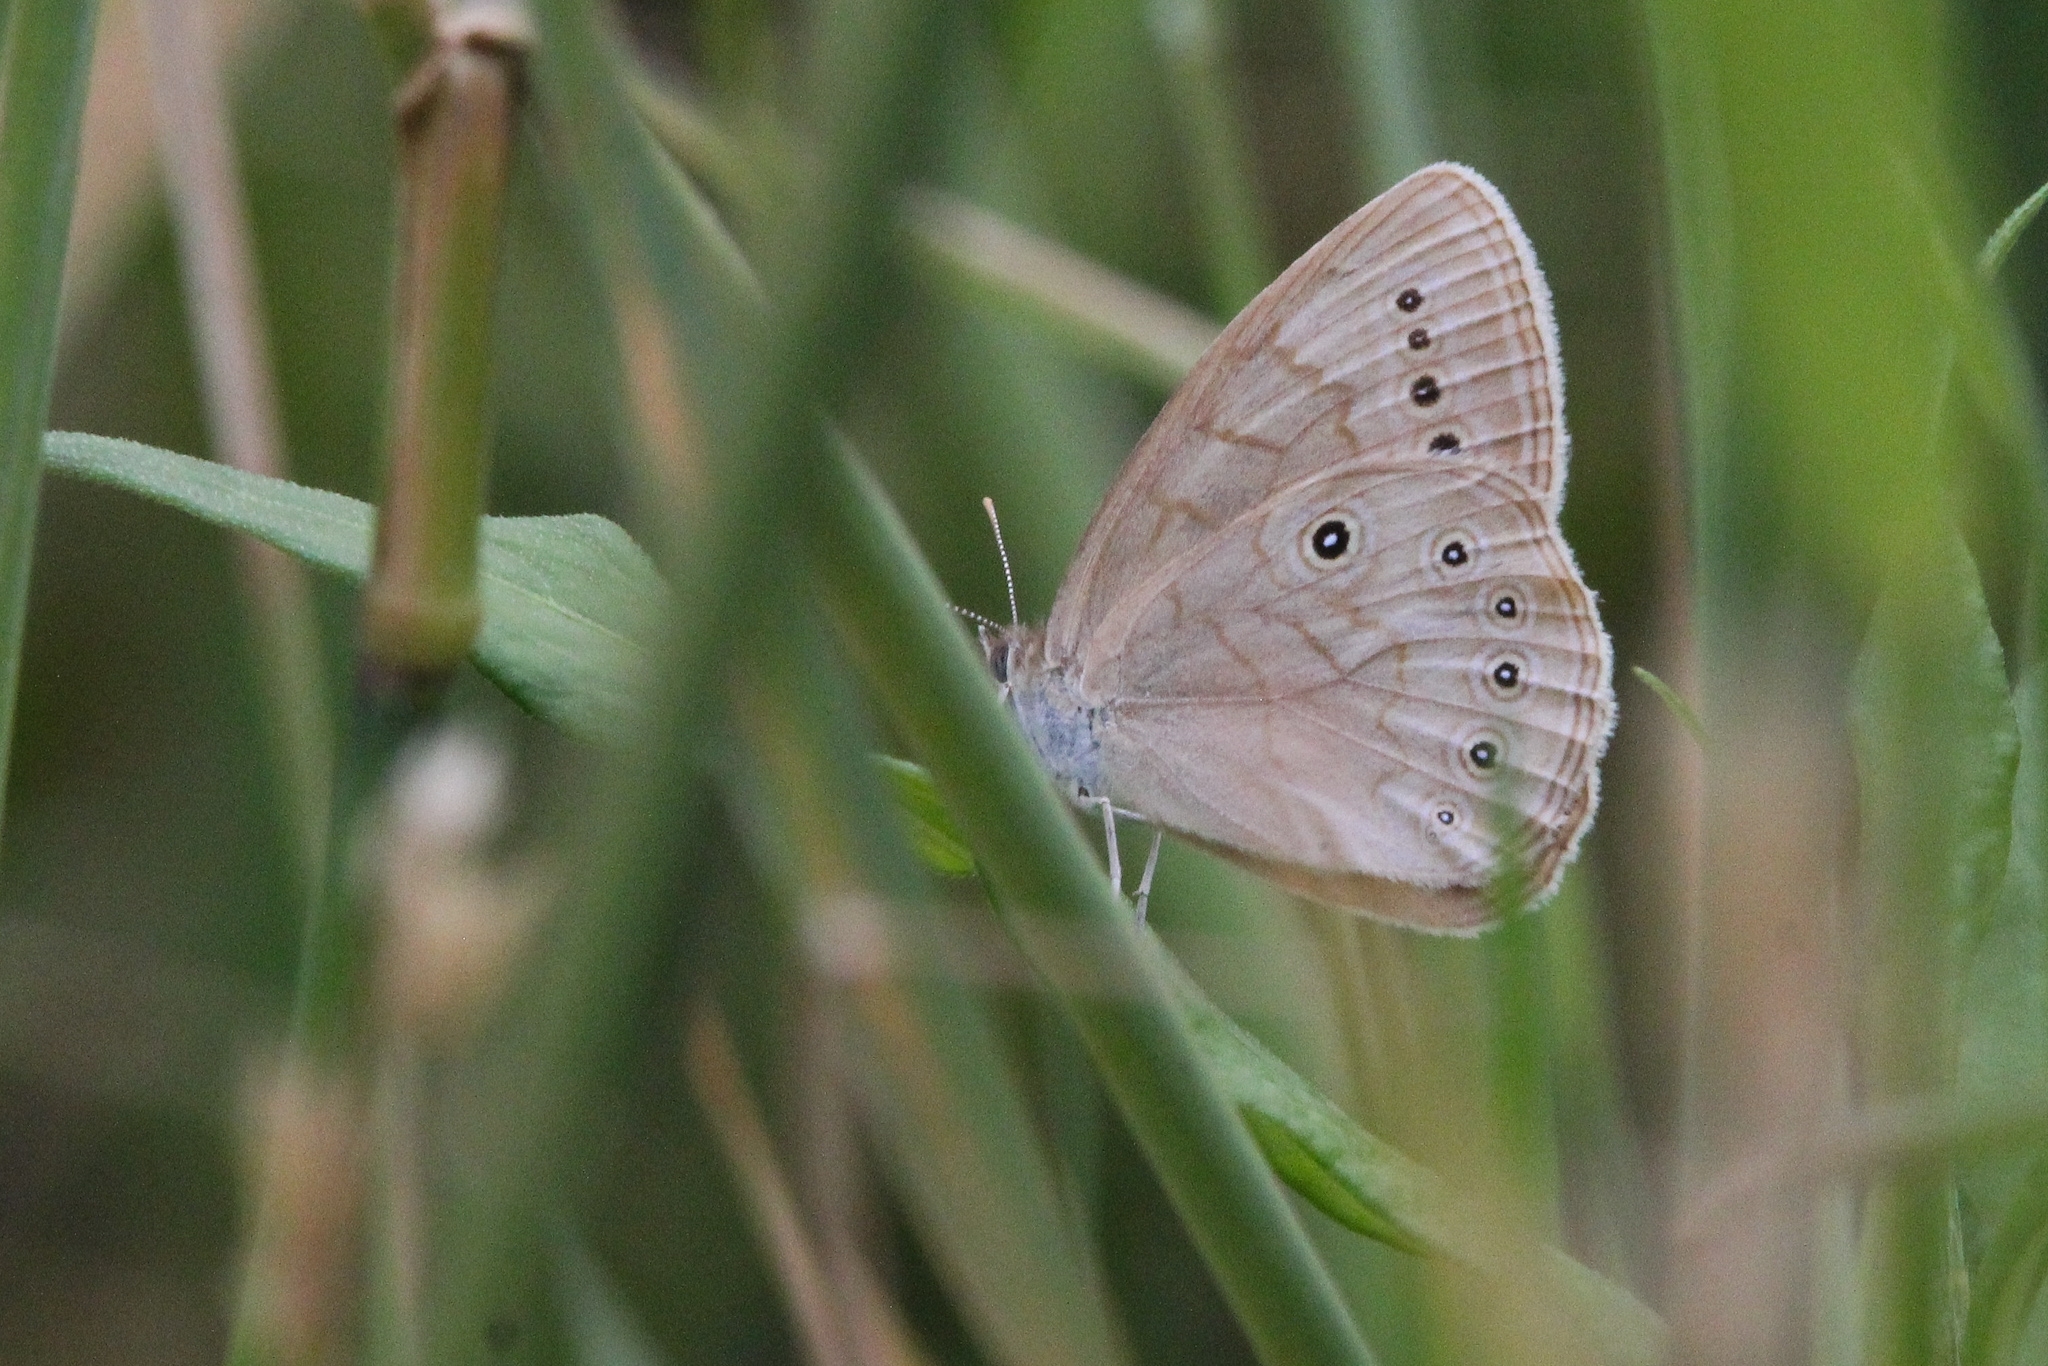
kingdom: Animalia
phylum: Arthropoda
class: Insecta
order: Lepidoptera
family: Nymphalidae
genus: Lethe
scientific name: Lethe eurydice
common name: Eyed brown
